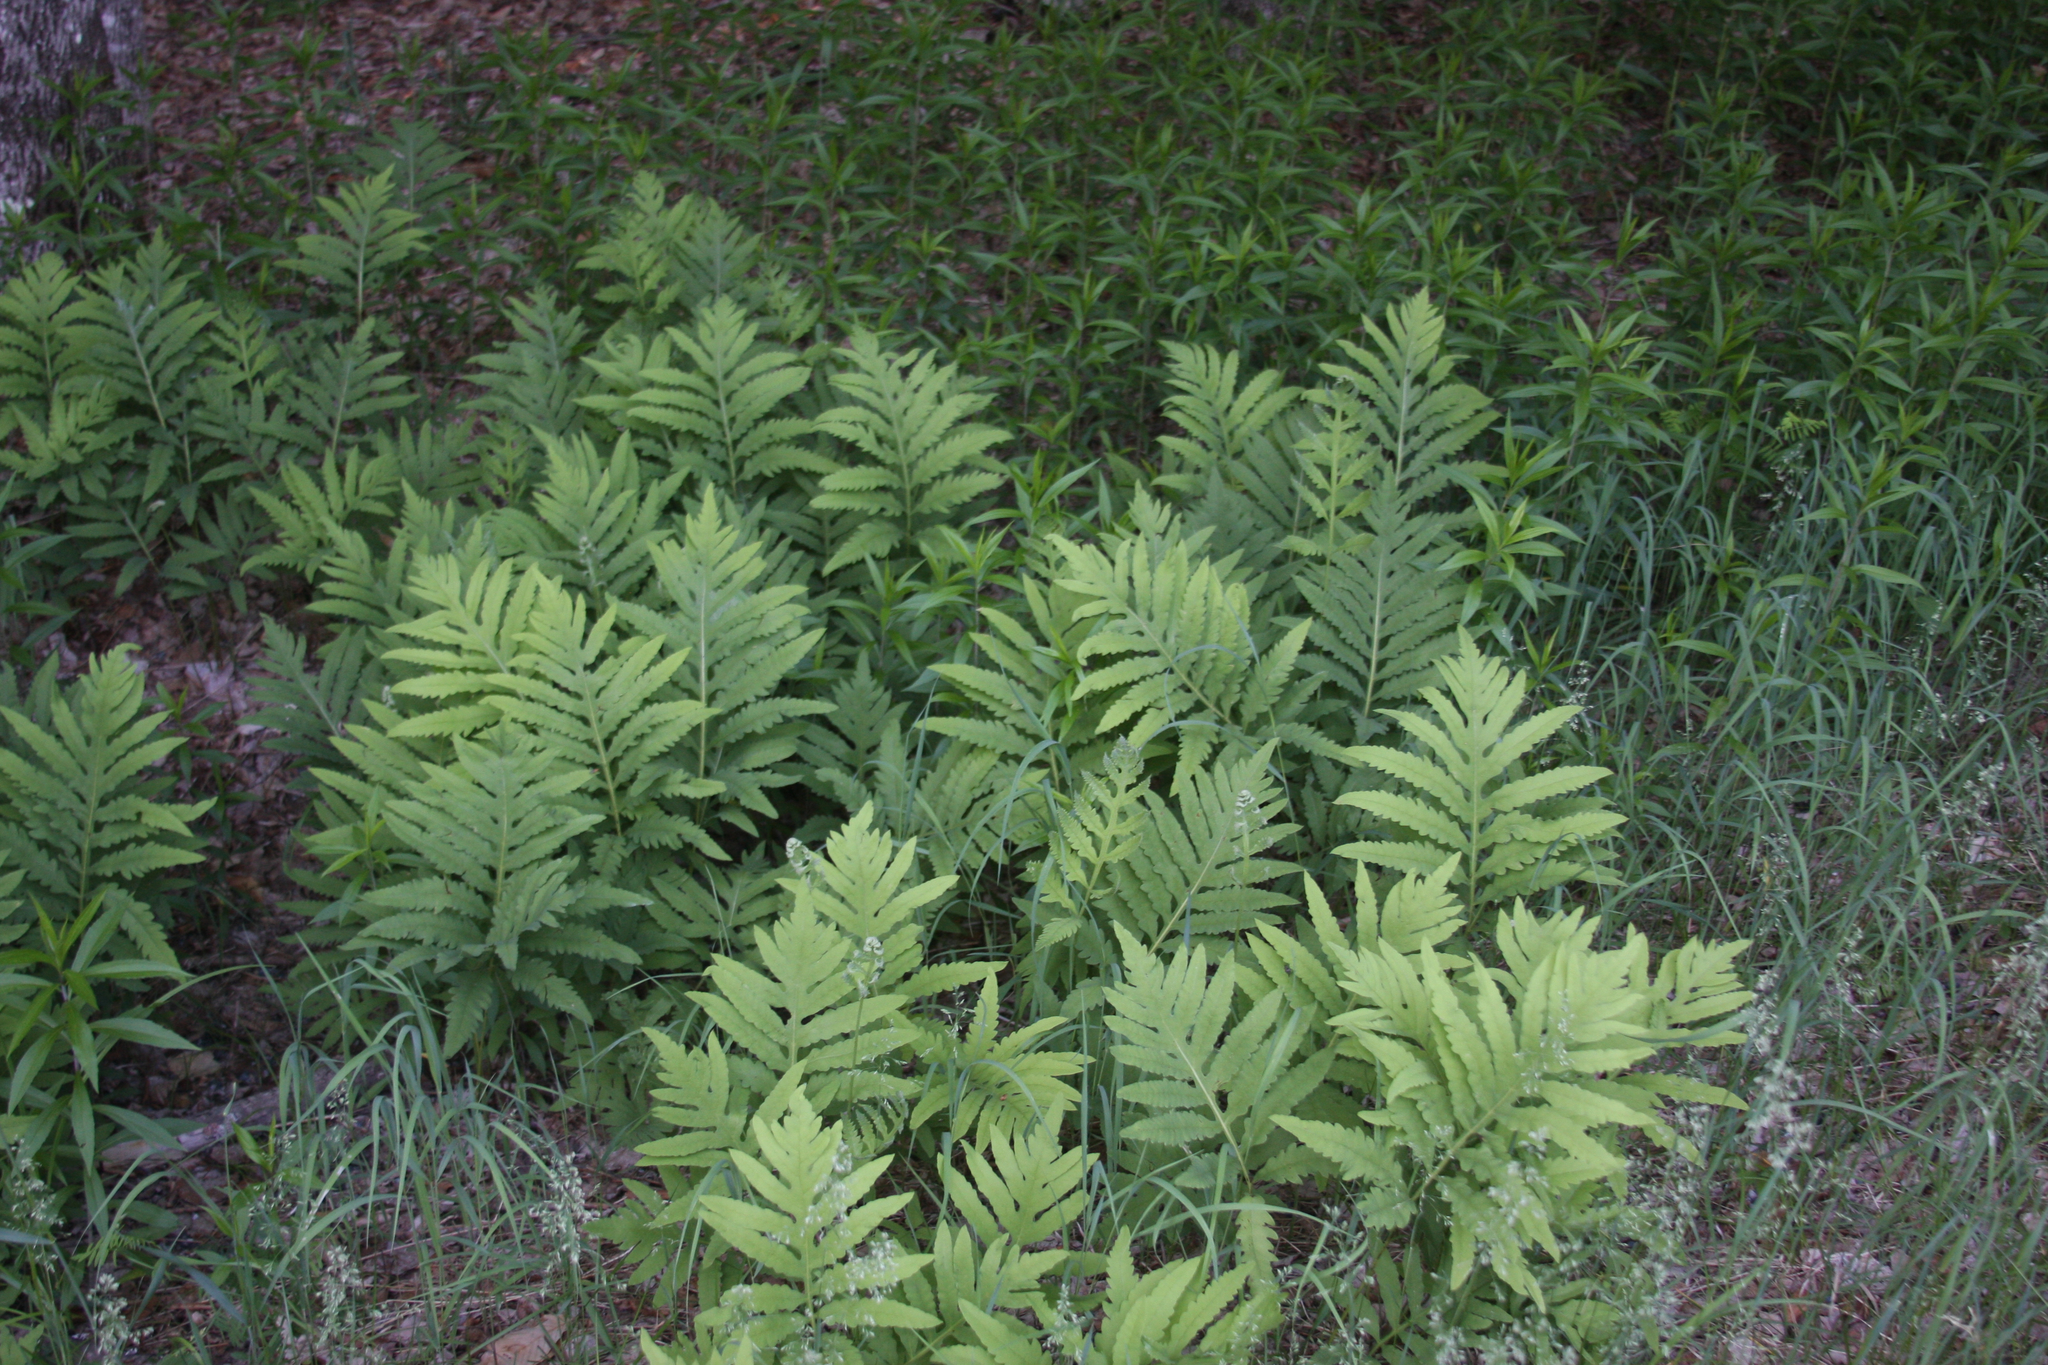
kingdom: Plantae
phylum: Tracheophyta
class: Polypodiopsida
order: Polypodiales
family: Onocleaceae
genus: Onoclea
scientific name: Onoclea sensibilis
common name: Sensitive fern
